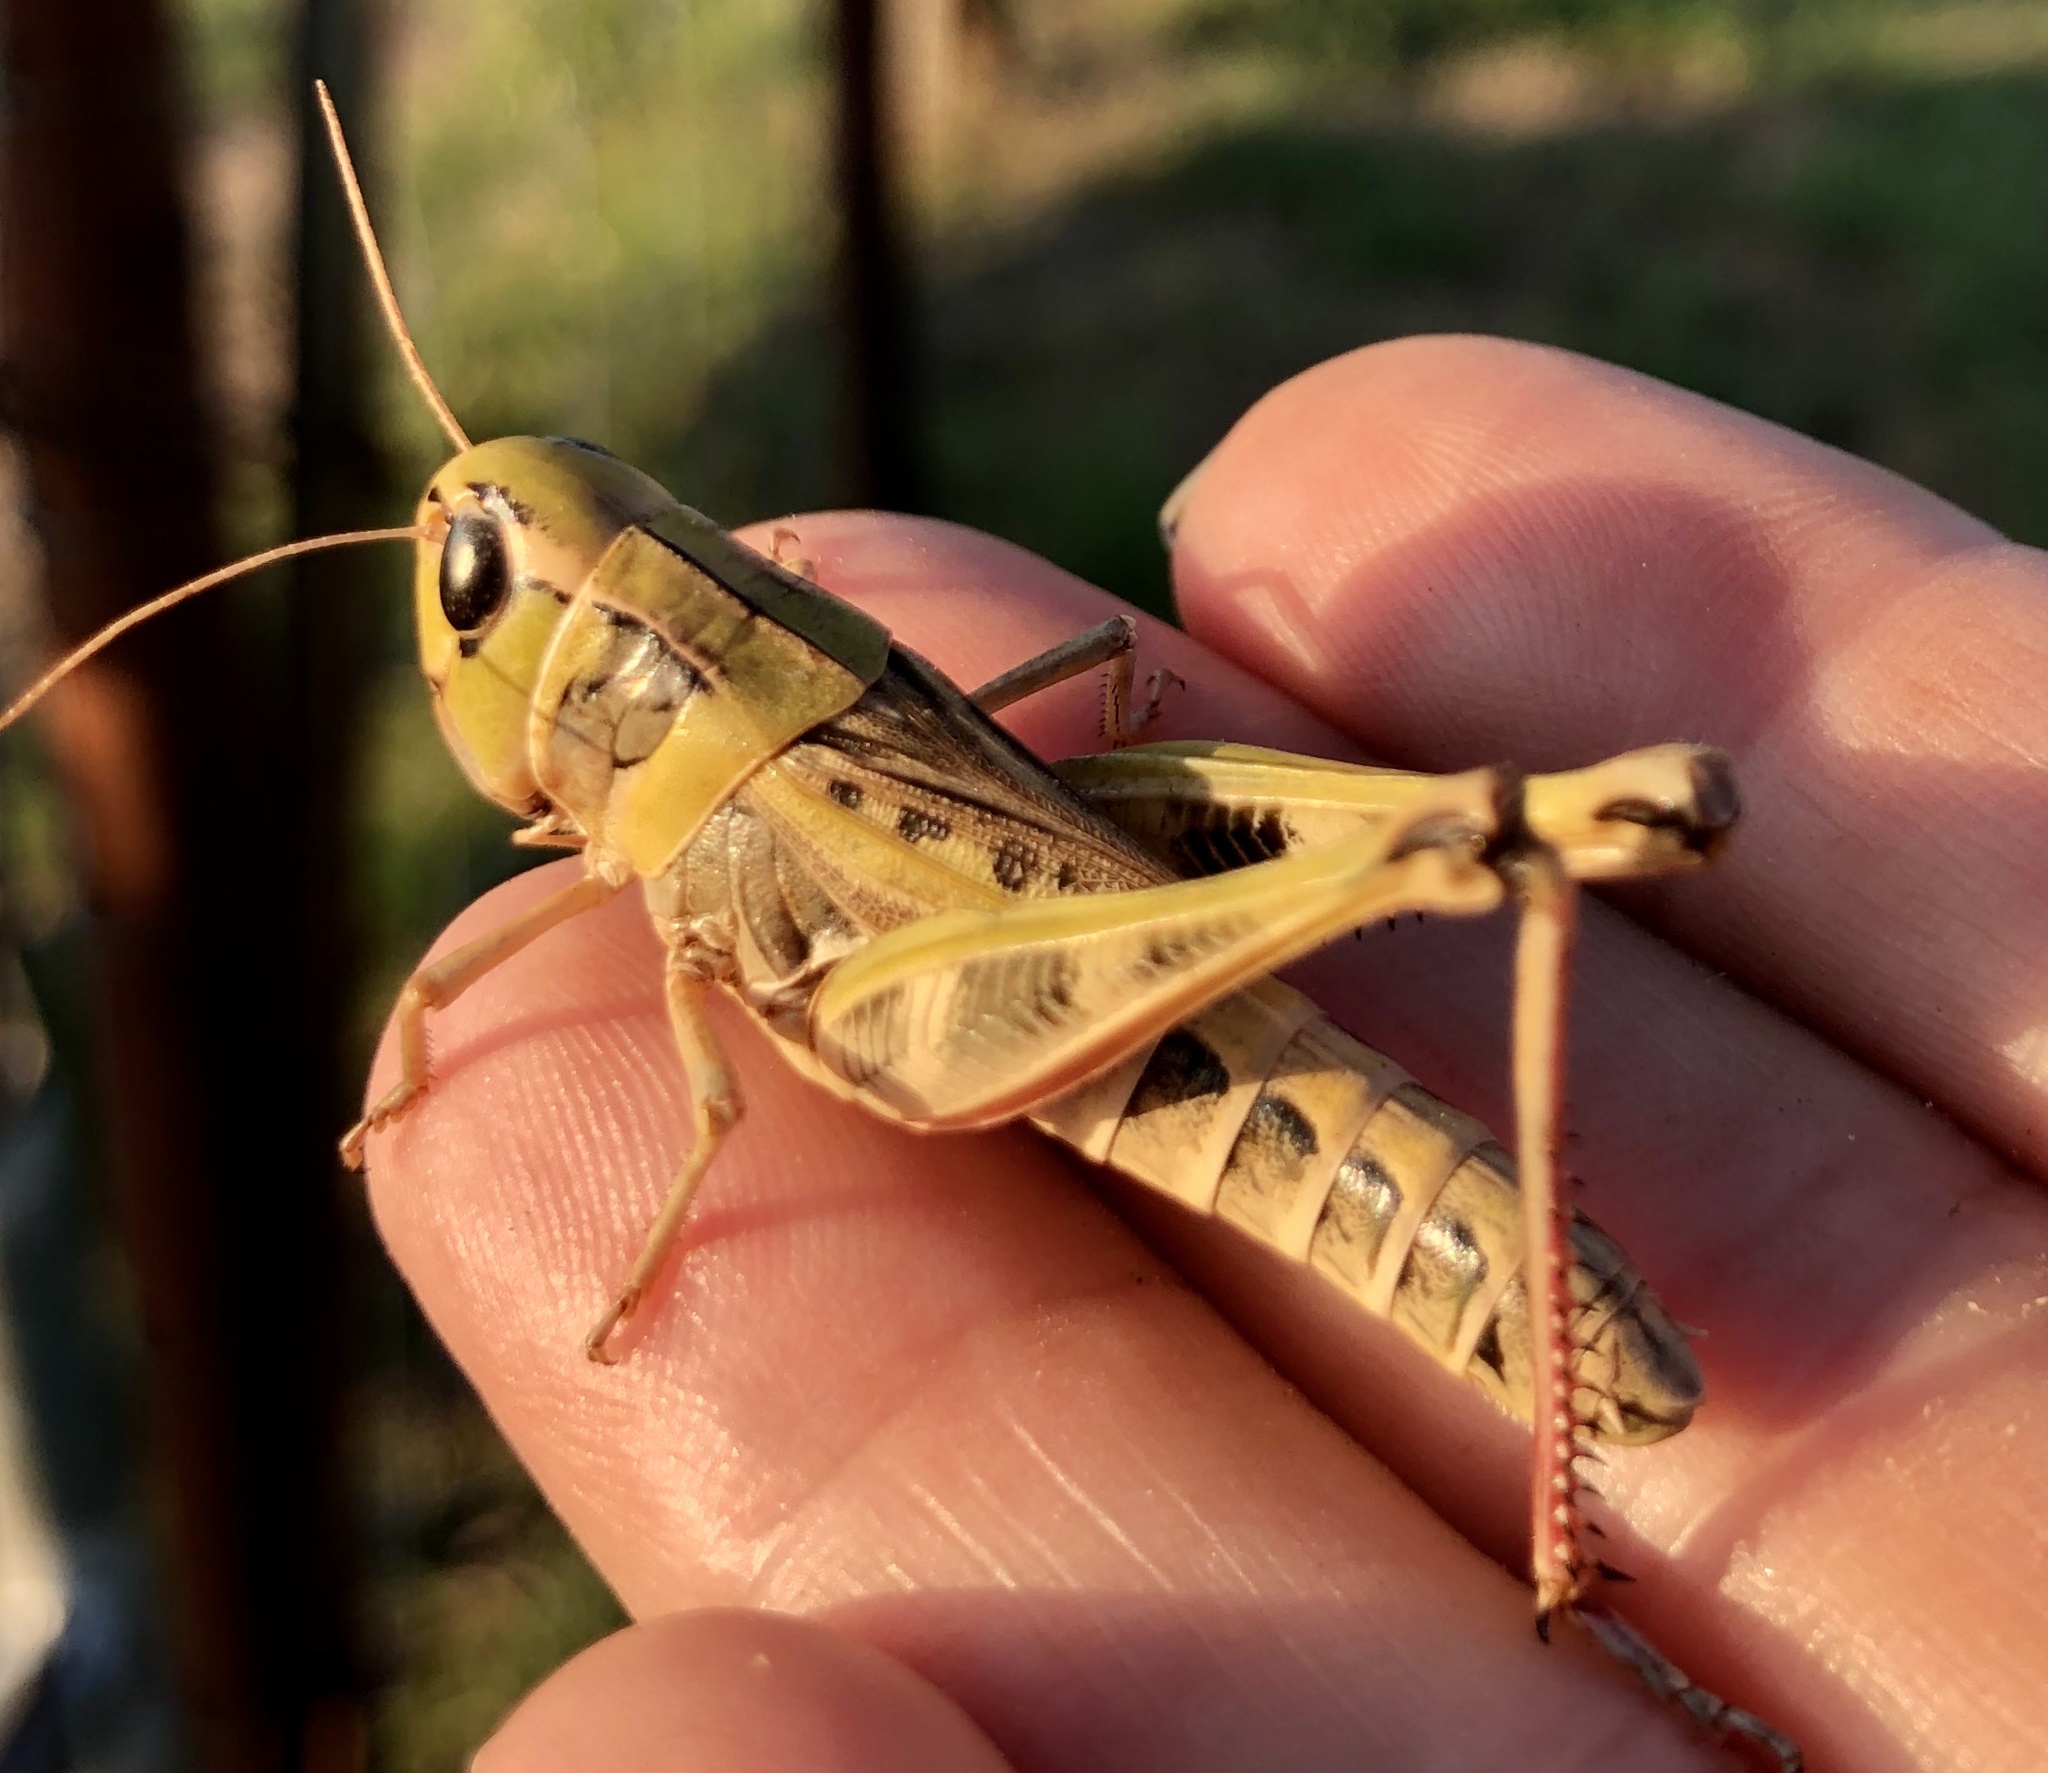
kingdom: Animalia
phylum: Arthropoda
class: Insecta
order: Orthoptera
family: Acrididae
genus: Boopedon
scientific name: Boopedon gracile
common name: Graceful range grasshopper
